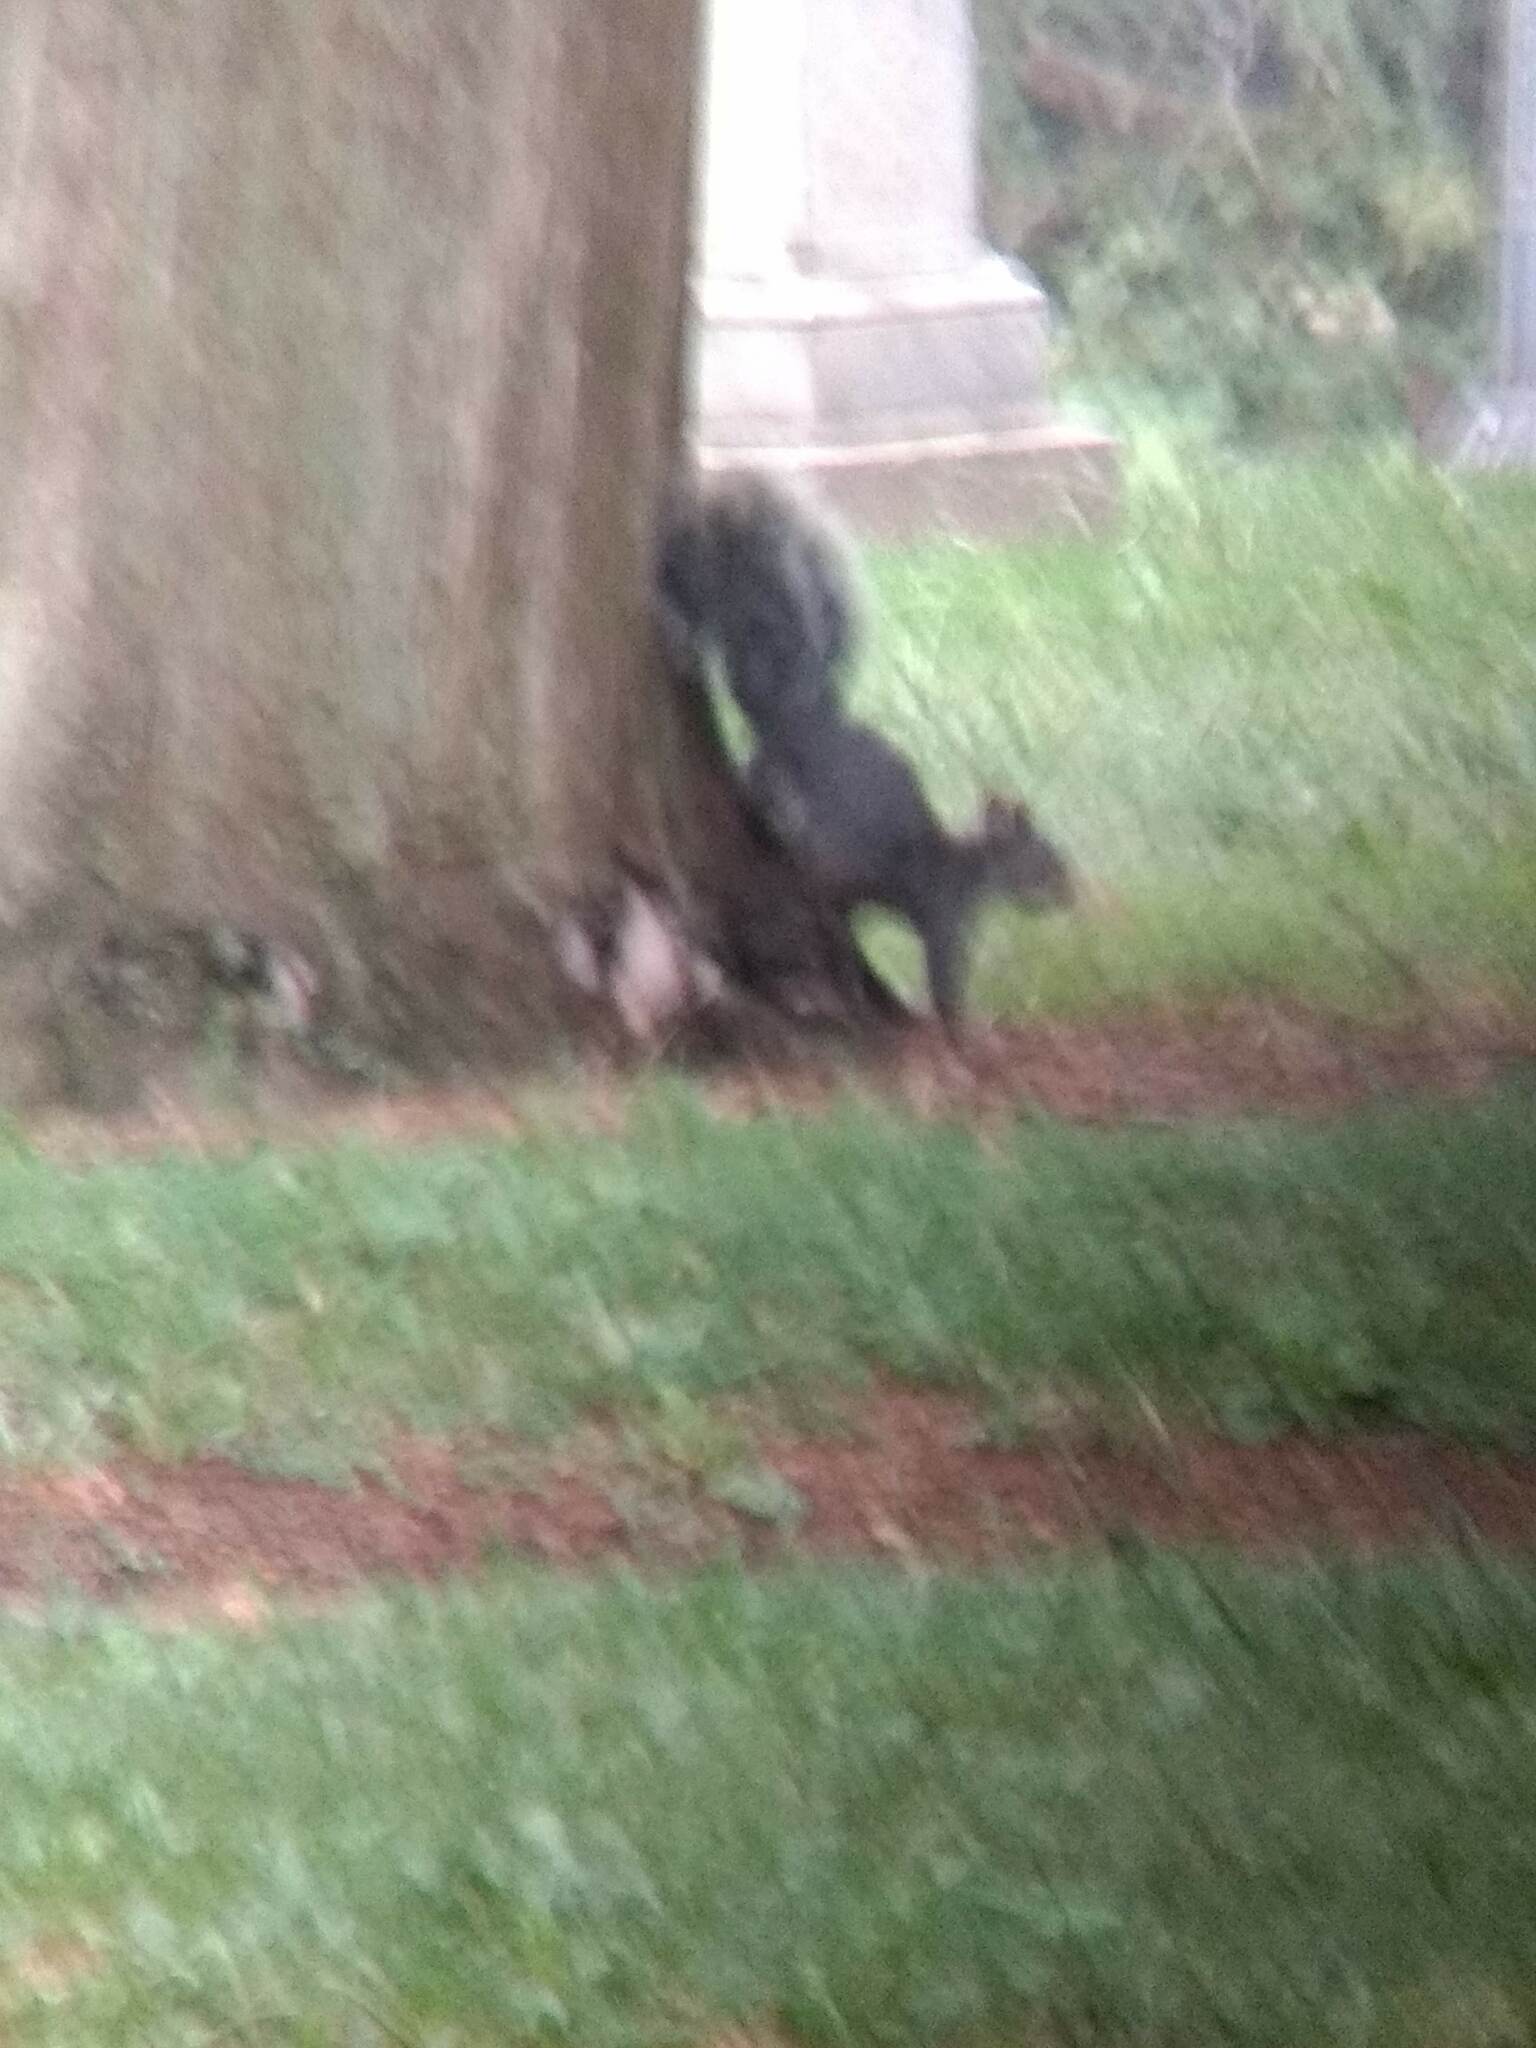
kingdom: Animalia
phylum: Chordata
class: Mammalia
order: Rodentia
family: Sciuridae
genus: Sciurus
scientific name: Sciurus griseus
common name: Western gray squirrel
